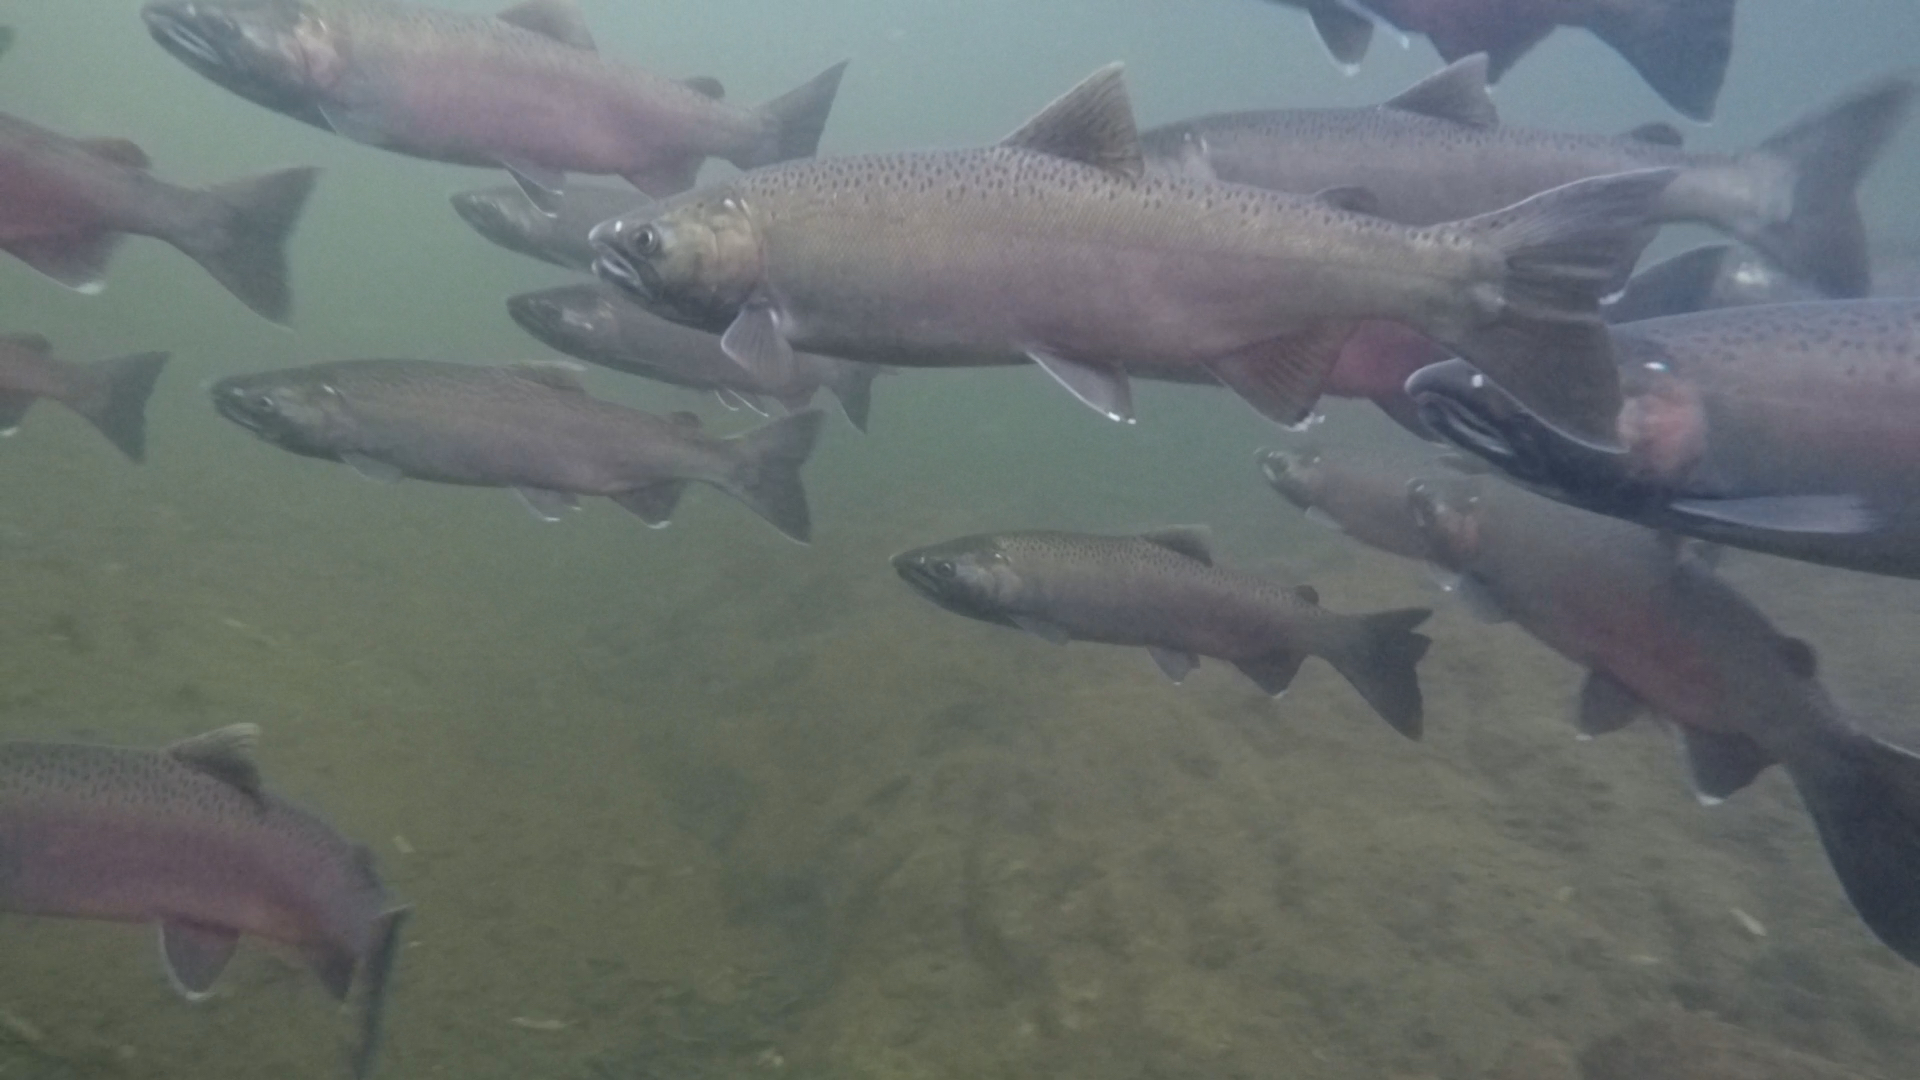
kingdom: Animalia
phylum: Chordata
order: Salmoniformes
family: Salmonidae
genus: Oncorhynchus
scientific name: Oncorhynchus kisutch
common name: Coho salmon
